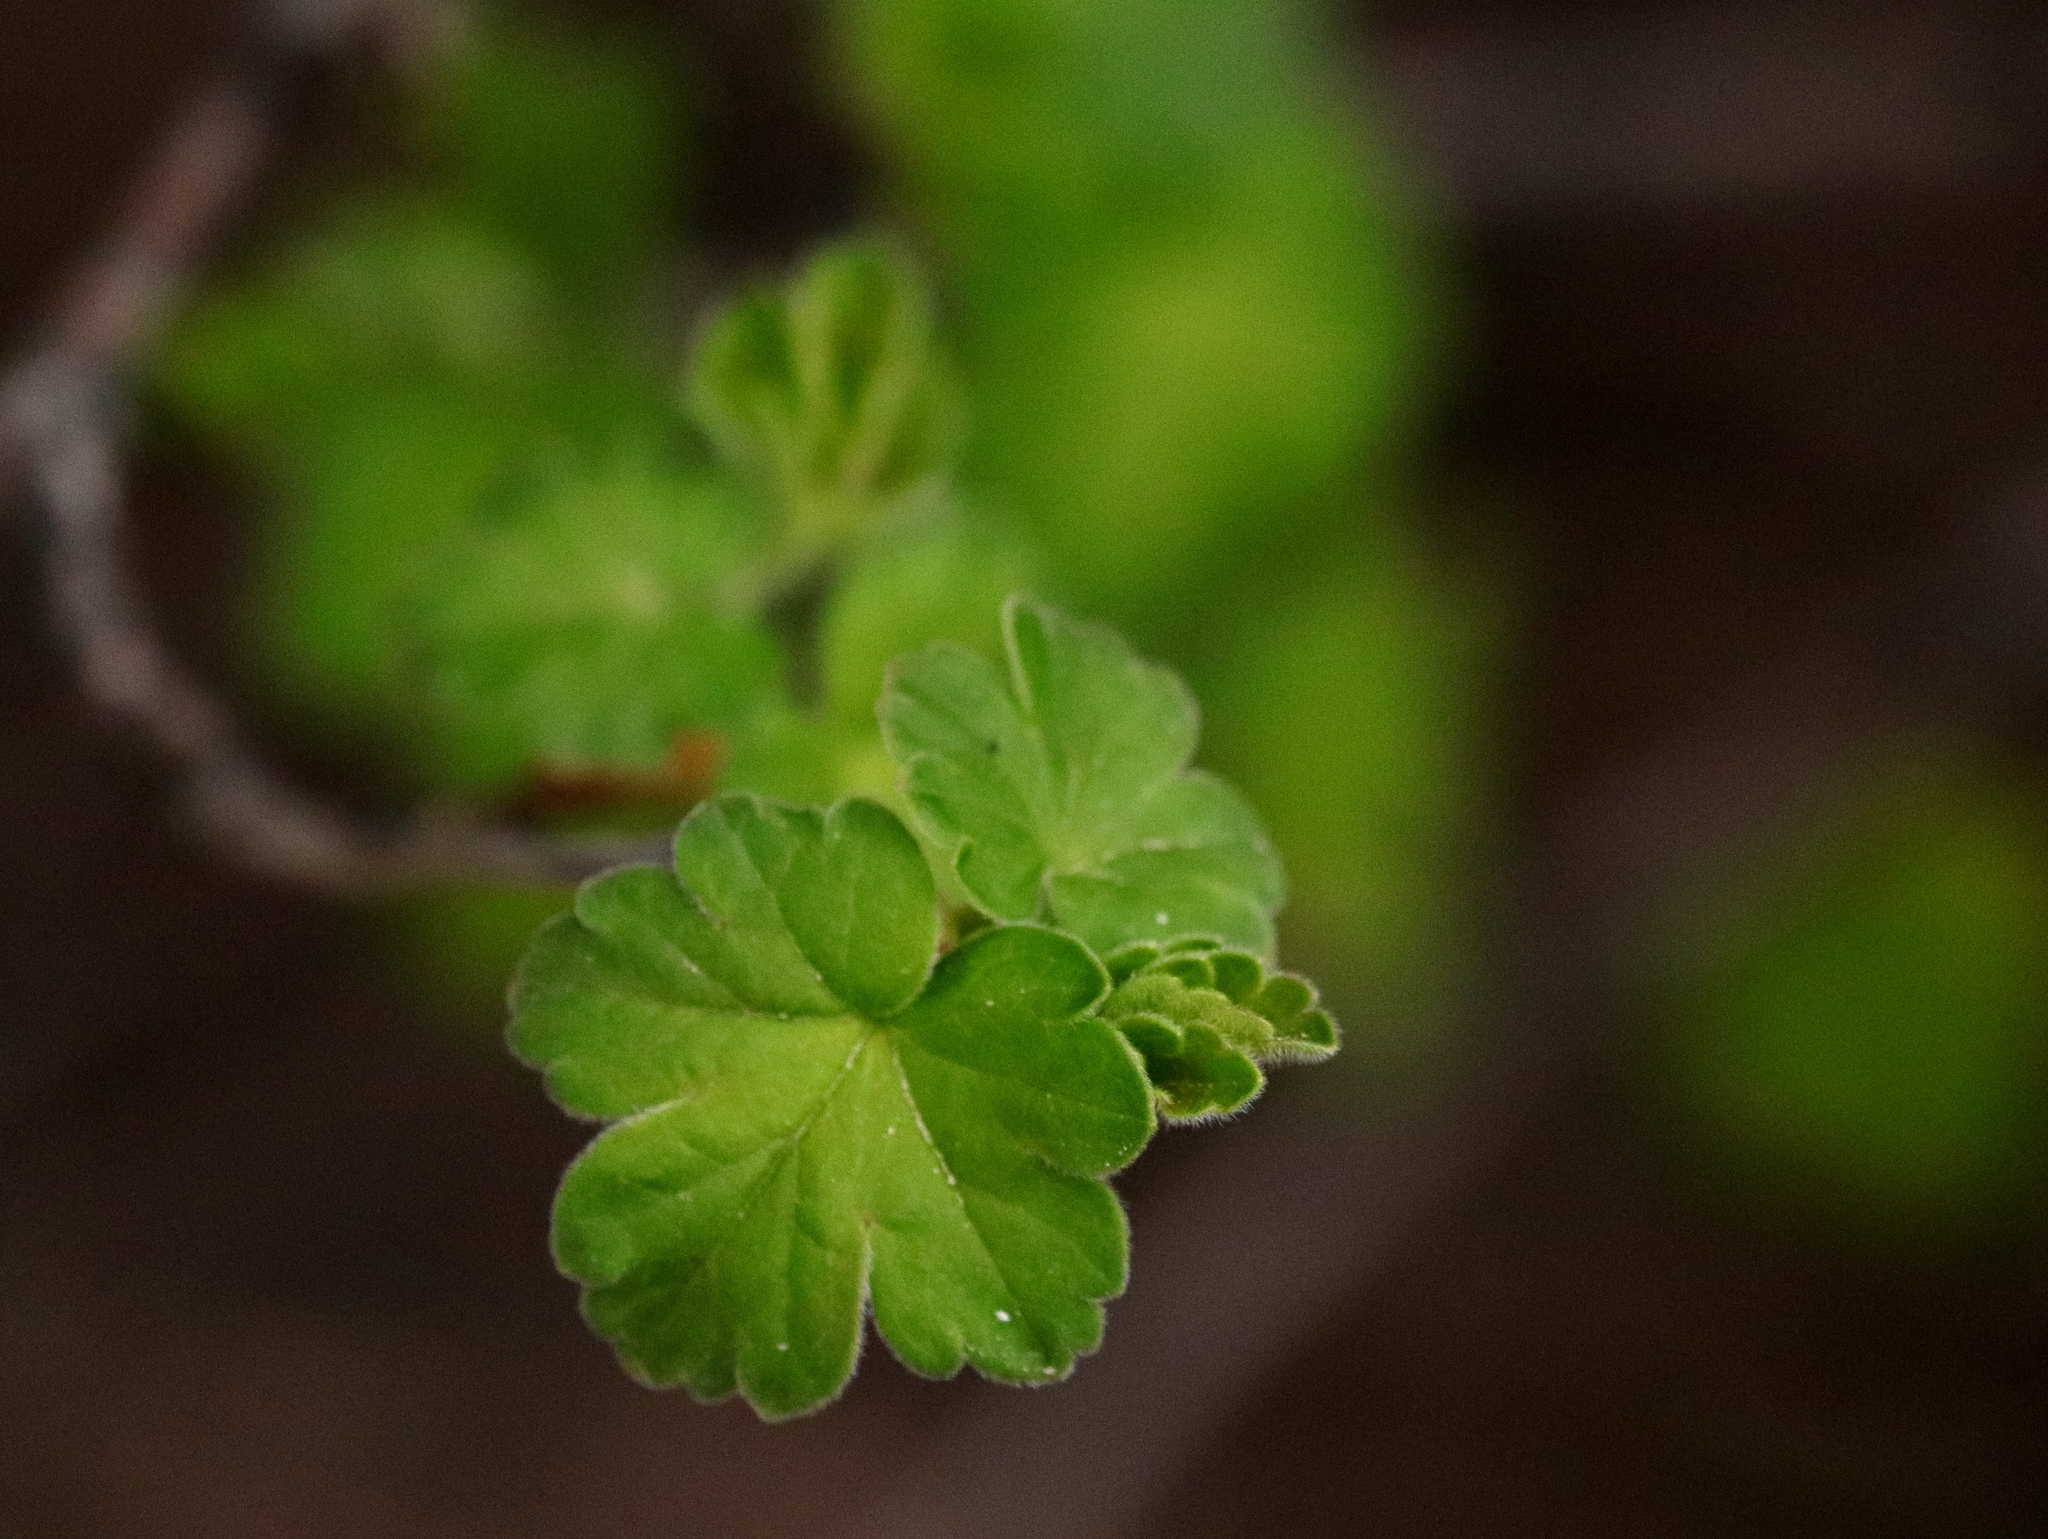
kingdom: Plantae
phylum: Tracheophyta
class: Magnoliopsida
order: Saxifragales
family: Grossulariaceae
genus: Ribes
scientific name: Ribes oxyacanthoides
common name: Northern gooseberry
